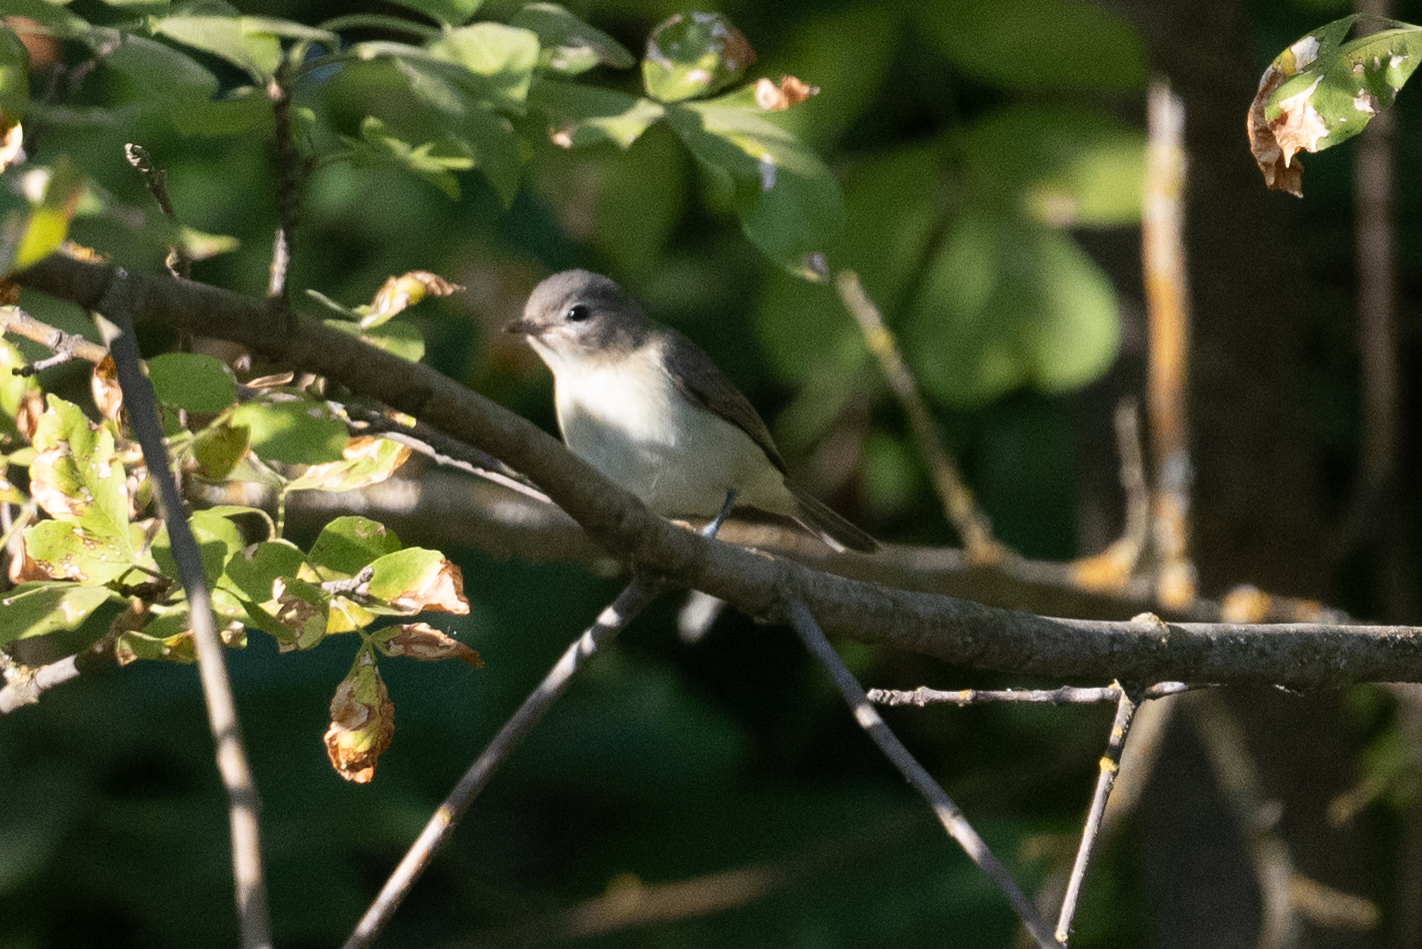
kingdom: Animalia
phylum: Chordata
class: Aves
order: Passeriformes
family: Vireonidae
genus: Vireo
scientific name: Vireo gilvus
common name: Warbling vireo
